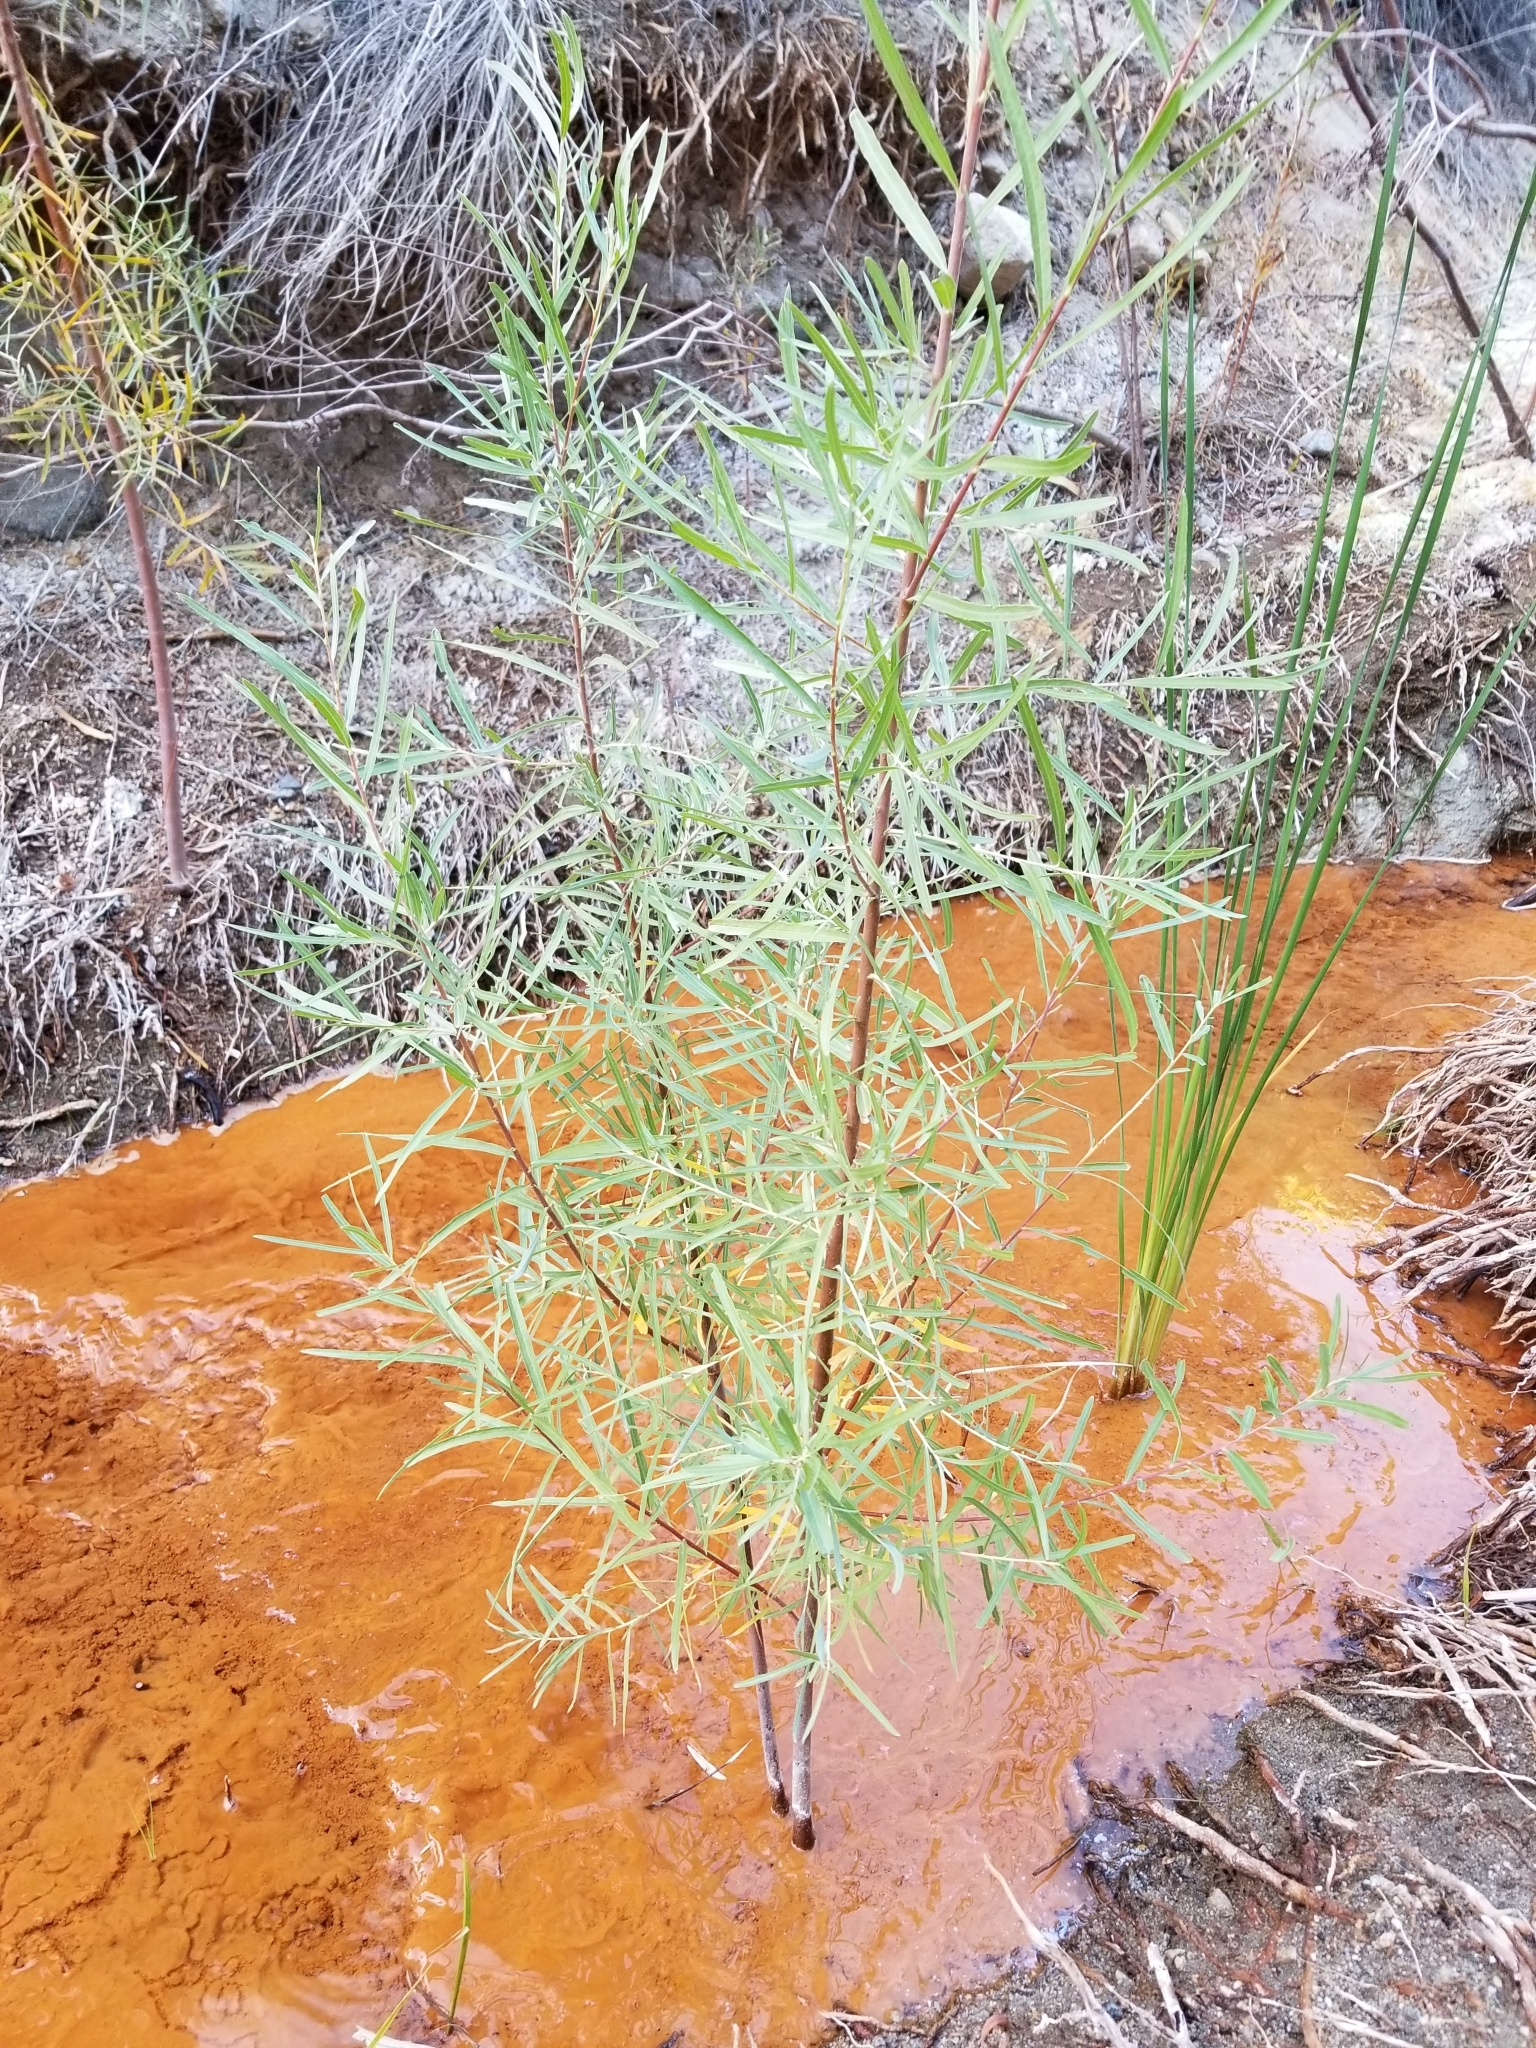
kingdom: Plantae
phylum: Tracheophyta
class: Magnoliopsida
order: Malpighiales
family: Salicaceae
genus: Salix
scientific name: Salix exigua
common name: Coyote willow
